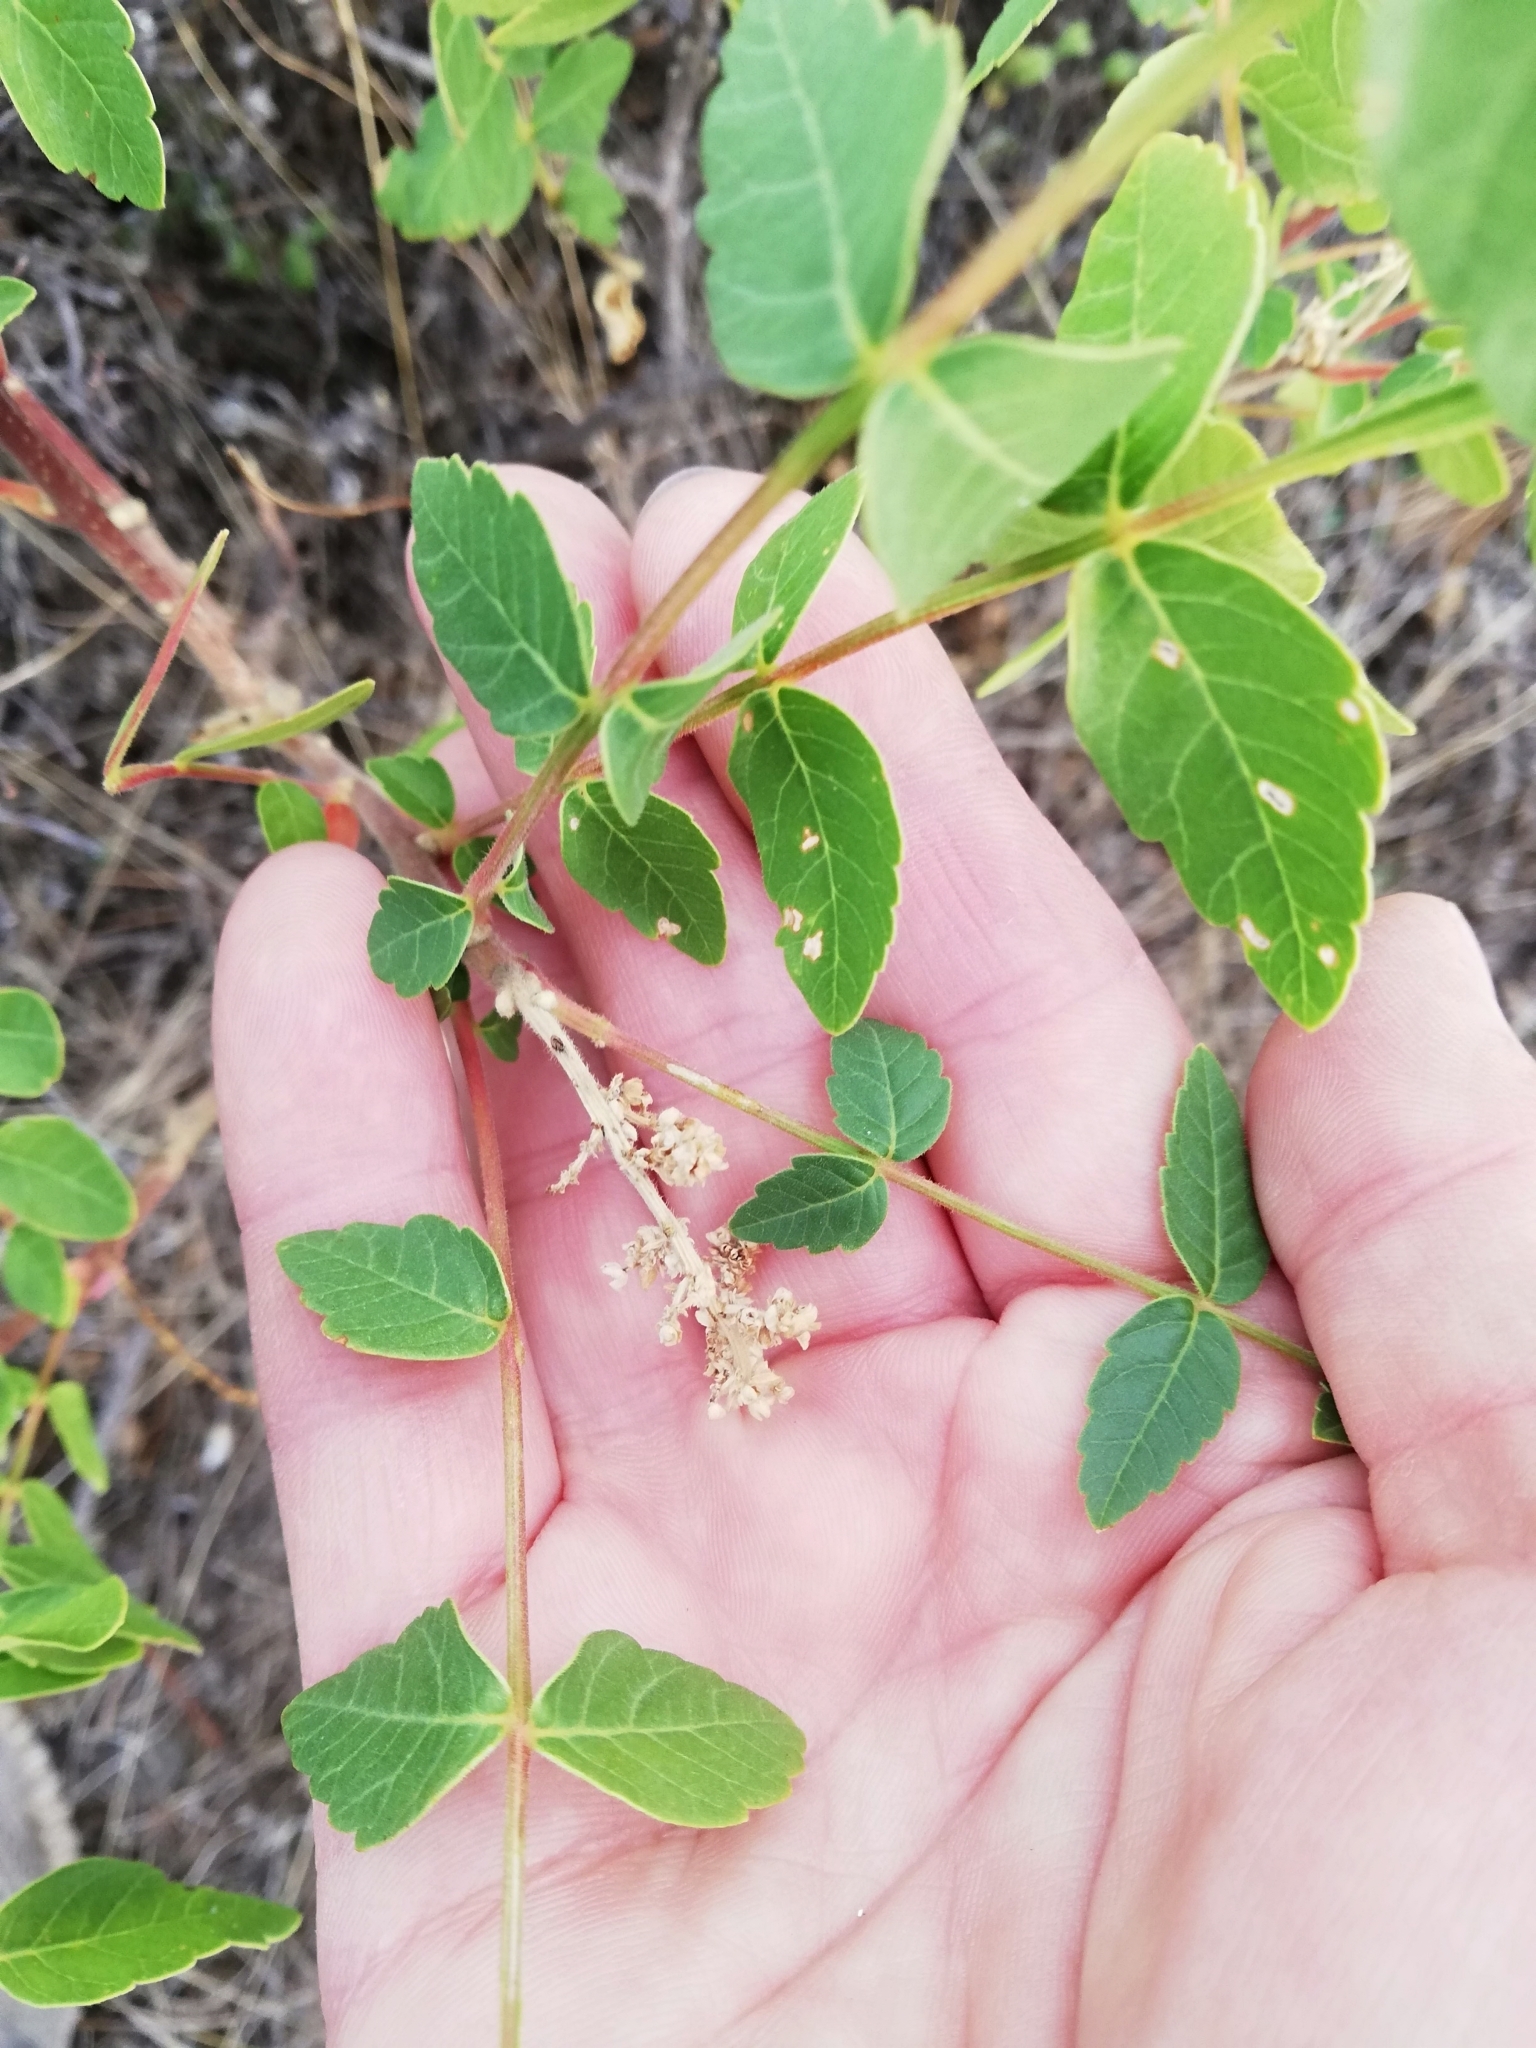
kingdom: Plantae
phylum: Tracheophyta
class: Magnoliopsida
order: Sapindales
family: Anacardiaceae
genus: Rhus
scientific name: Rhus coriaria
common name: Tanner's sumach
